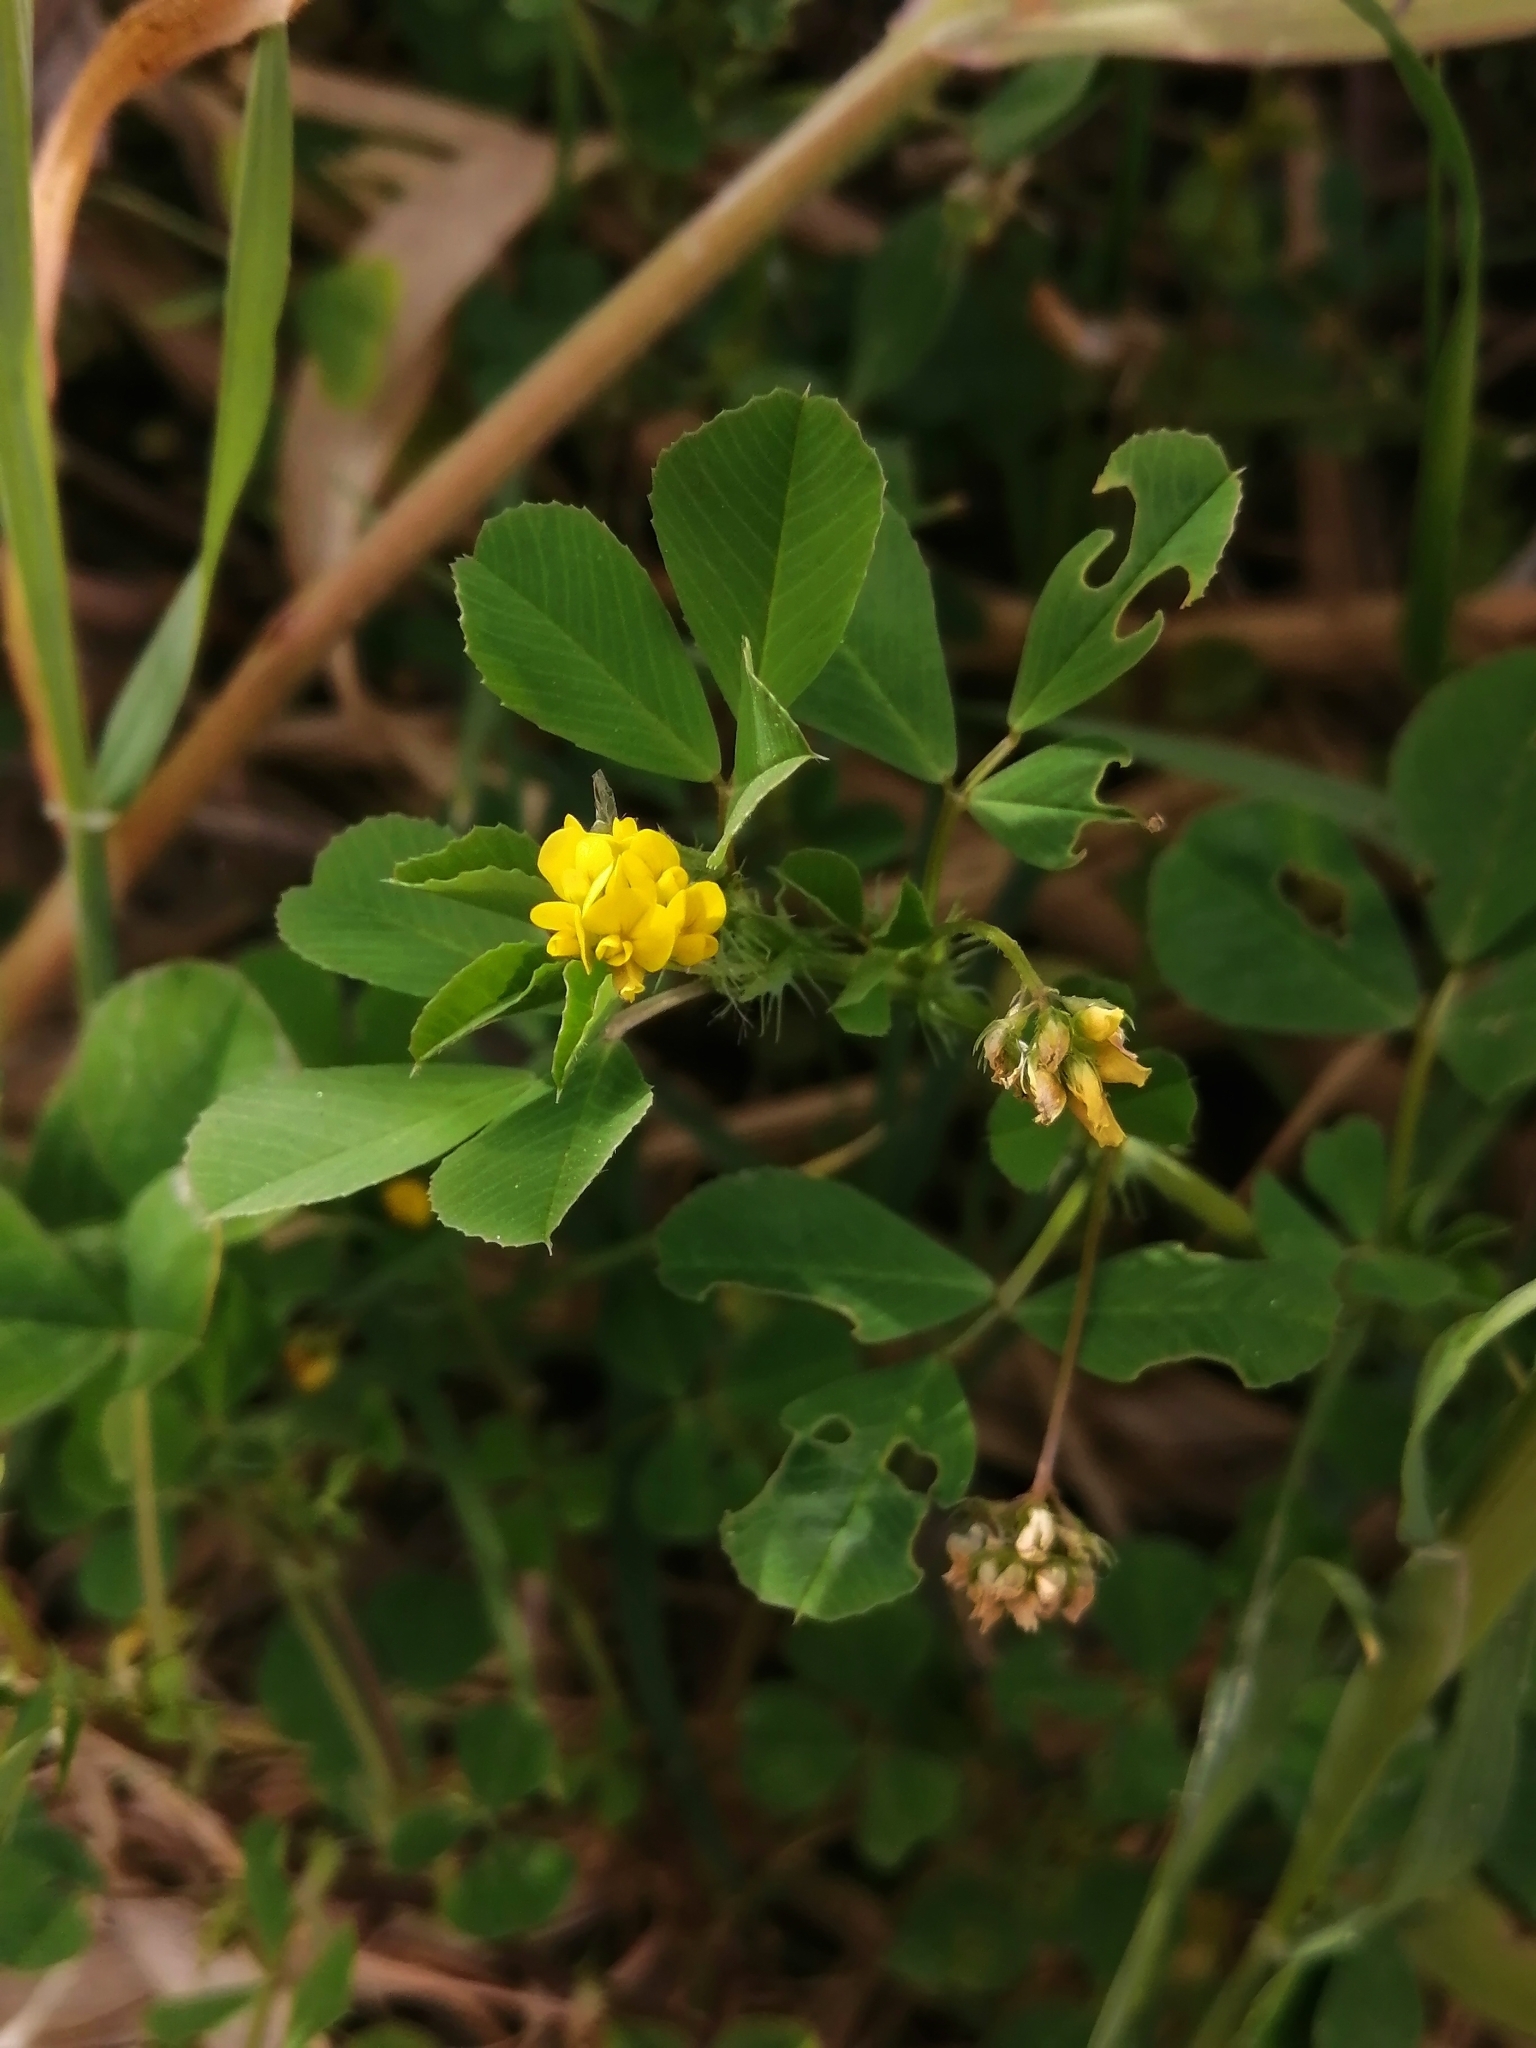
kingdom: Plantae
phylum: Tracheophyta
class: Magnoliopsida
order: Fabales
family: Fabaceae
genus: Medicago
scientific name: Medicago polymorpha
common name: Burclover
